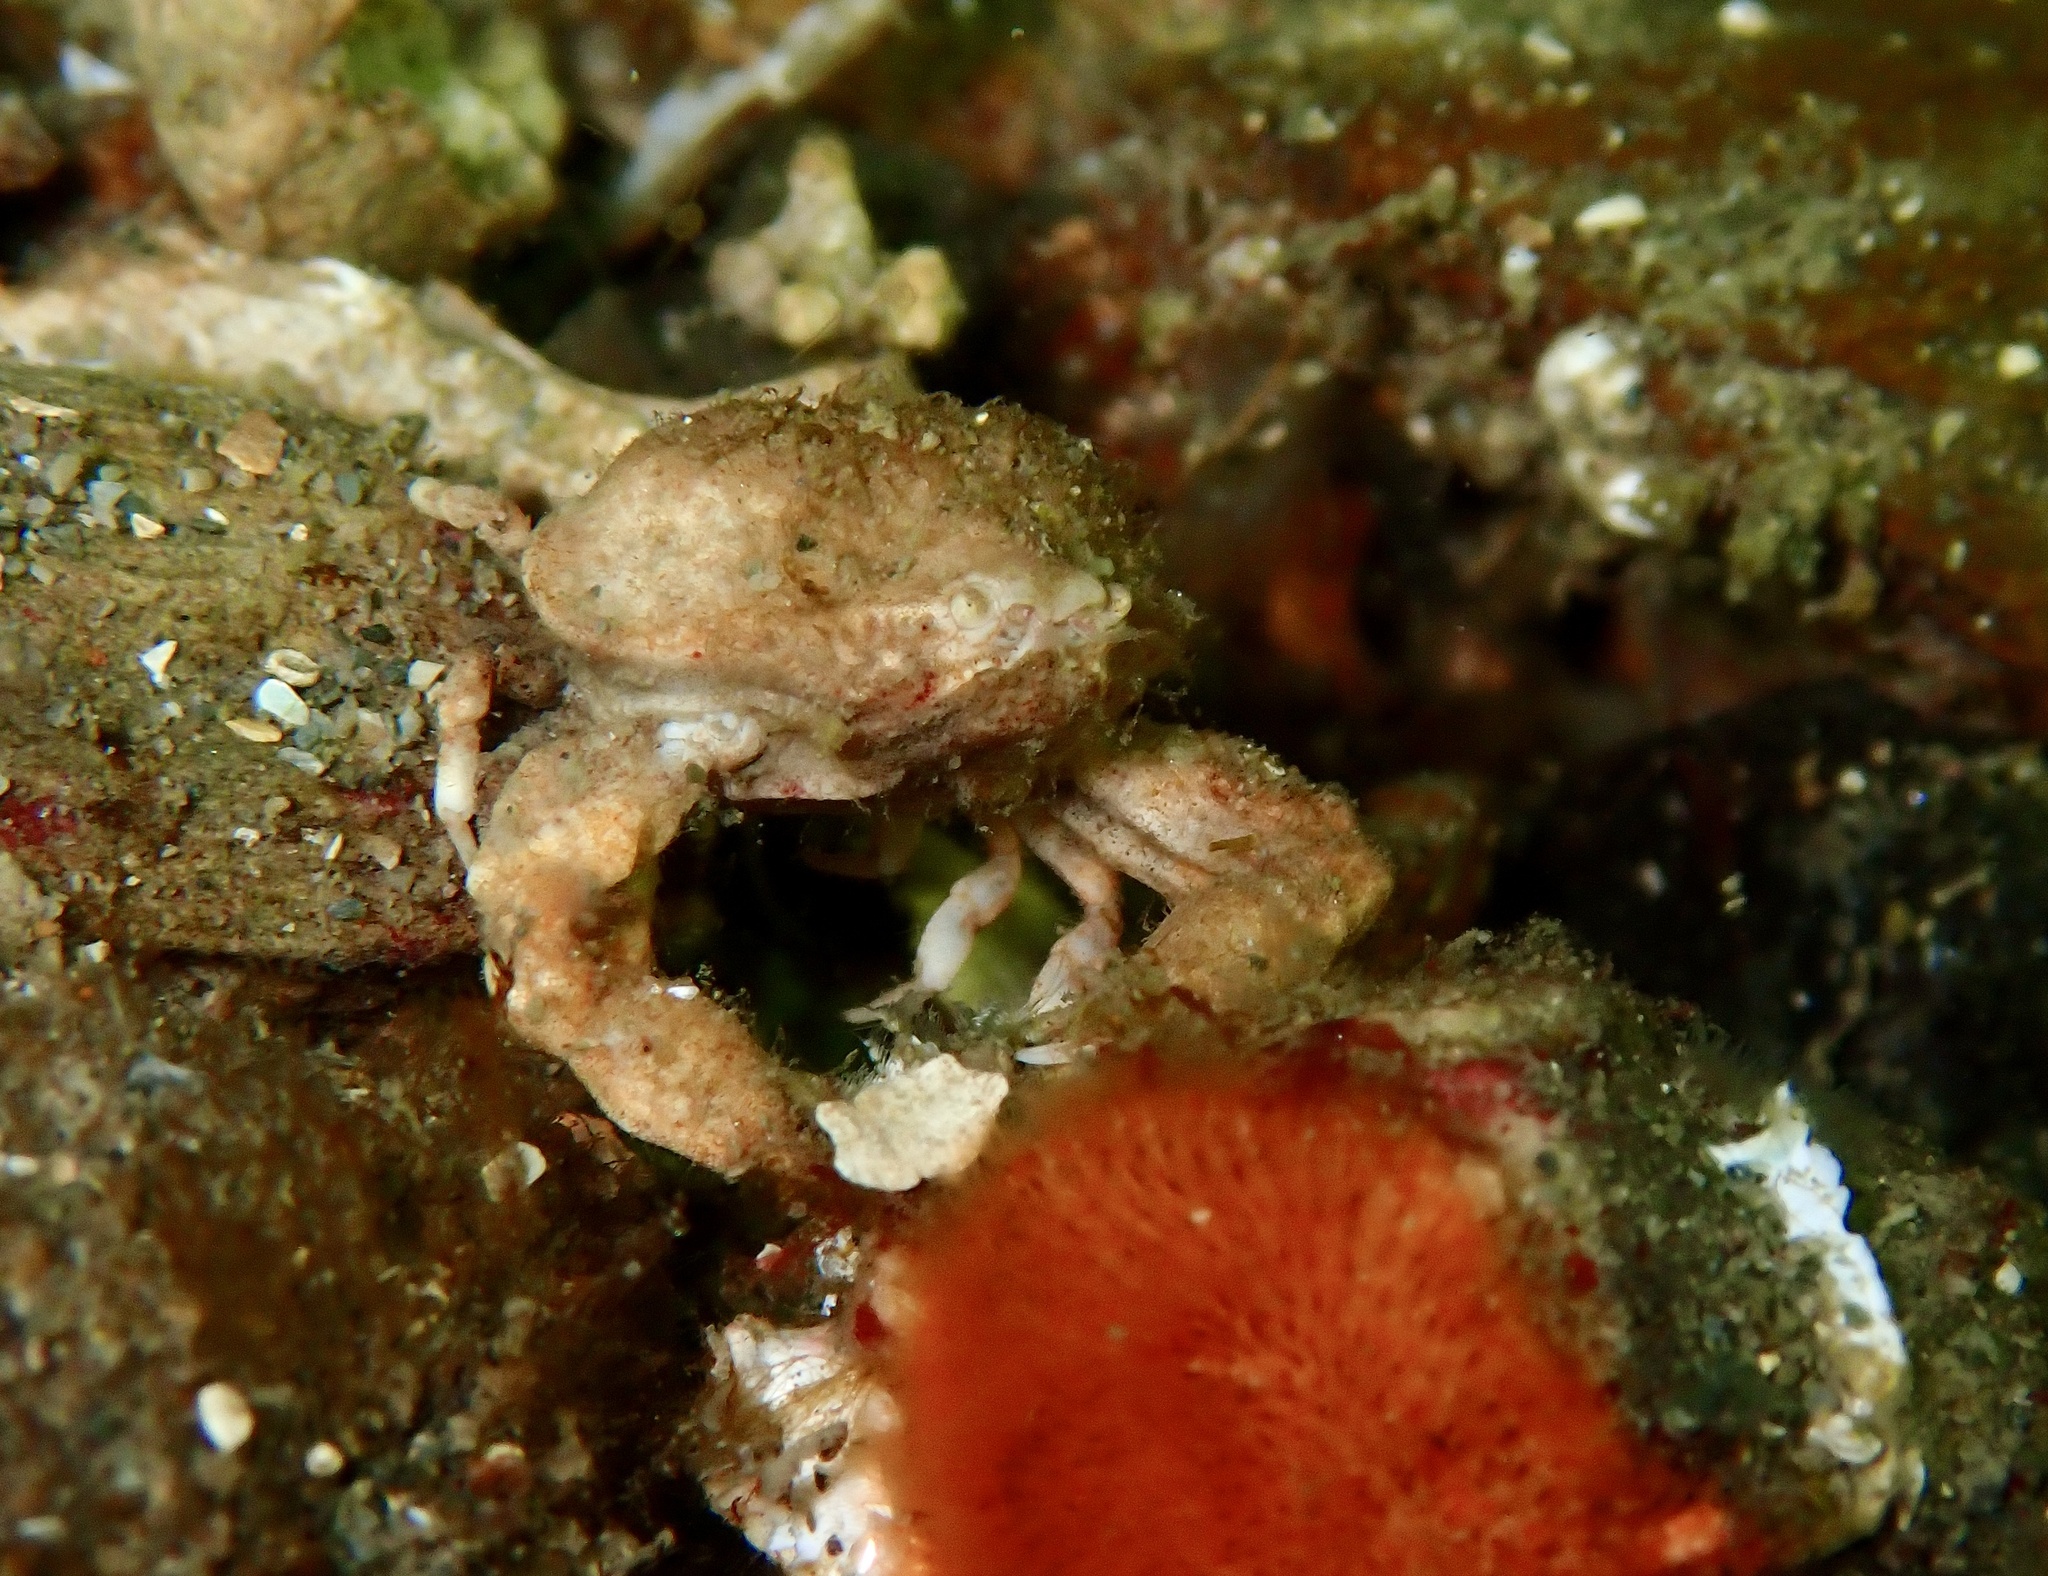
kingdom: Animalia
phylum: Arthropoda
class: Malacostraca
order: Decapoda
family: Leucosiidae
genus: Ebalia
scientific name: Ebalia tumefacta
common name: Bryer's nut crab
